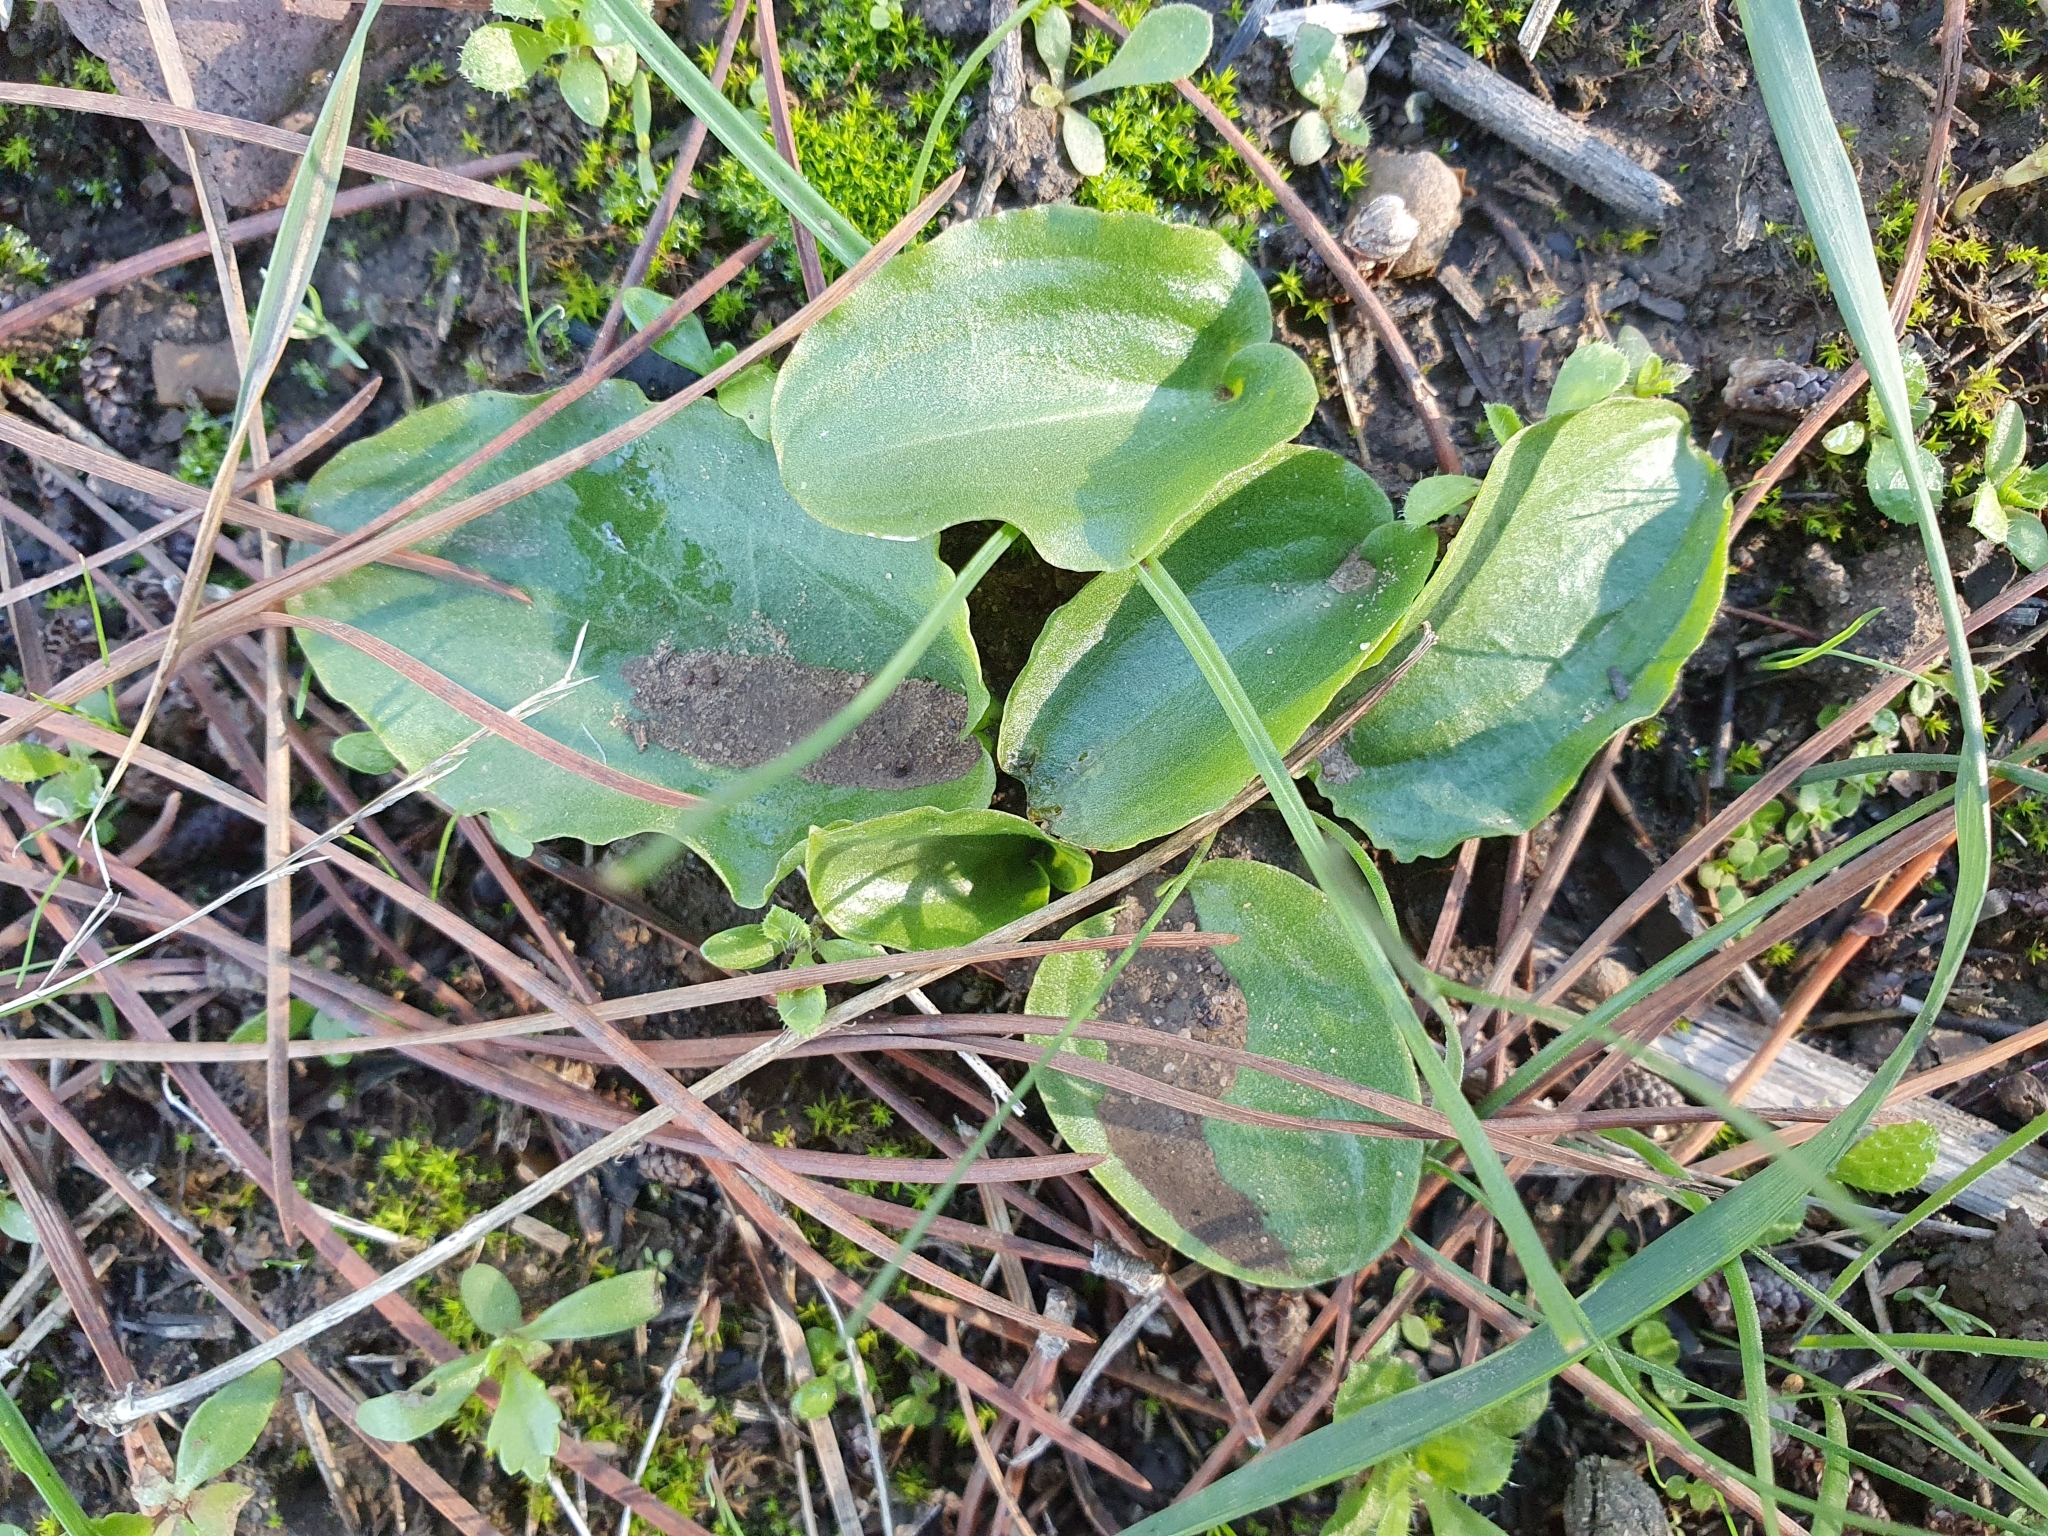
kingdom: Plantae
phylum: Tracheophyta
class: Liliopsida
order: Alismatales
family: Araceae
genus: Ambrosina
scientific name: Ambrosina bassii
